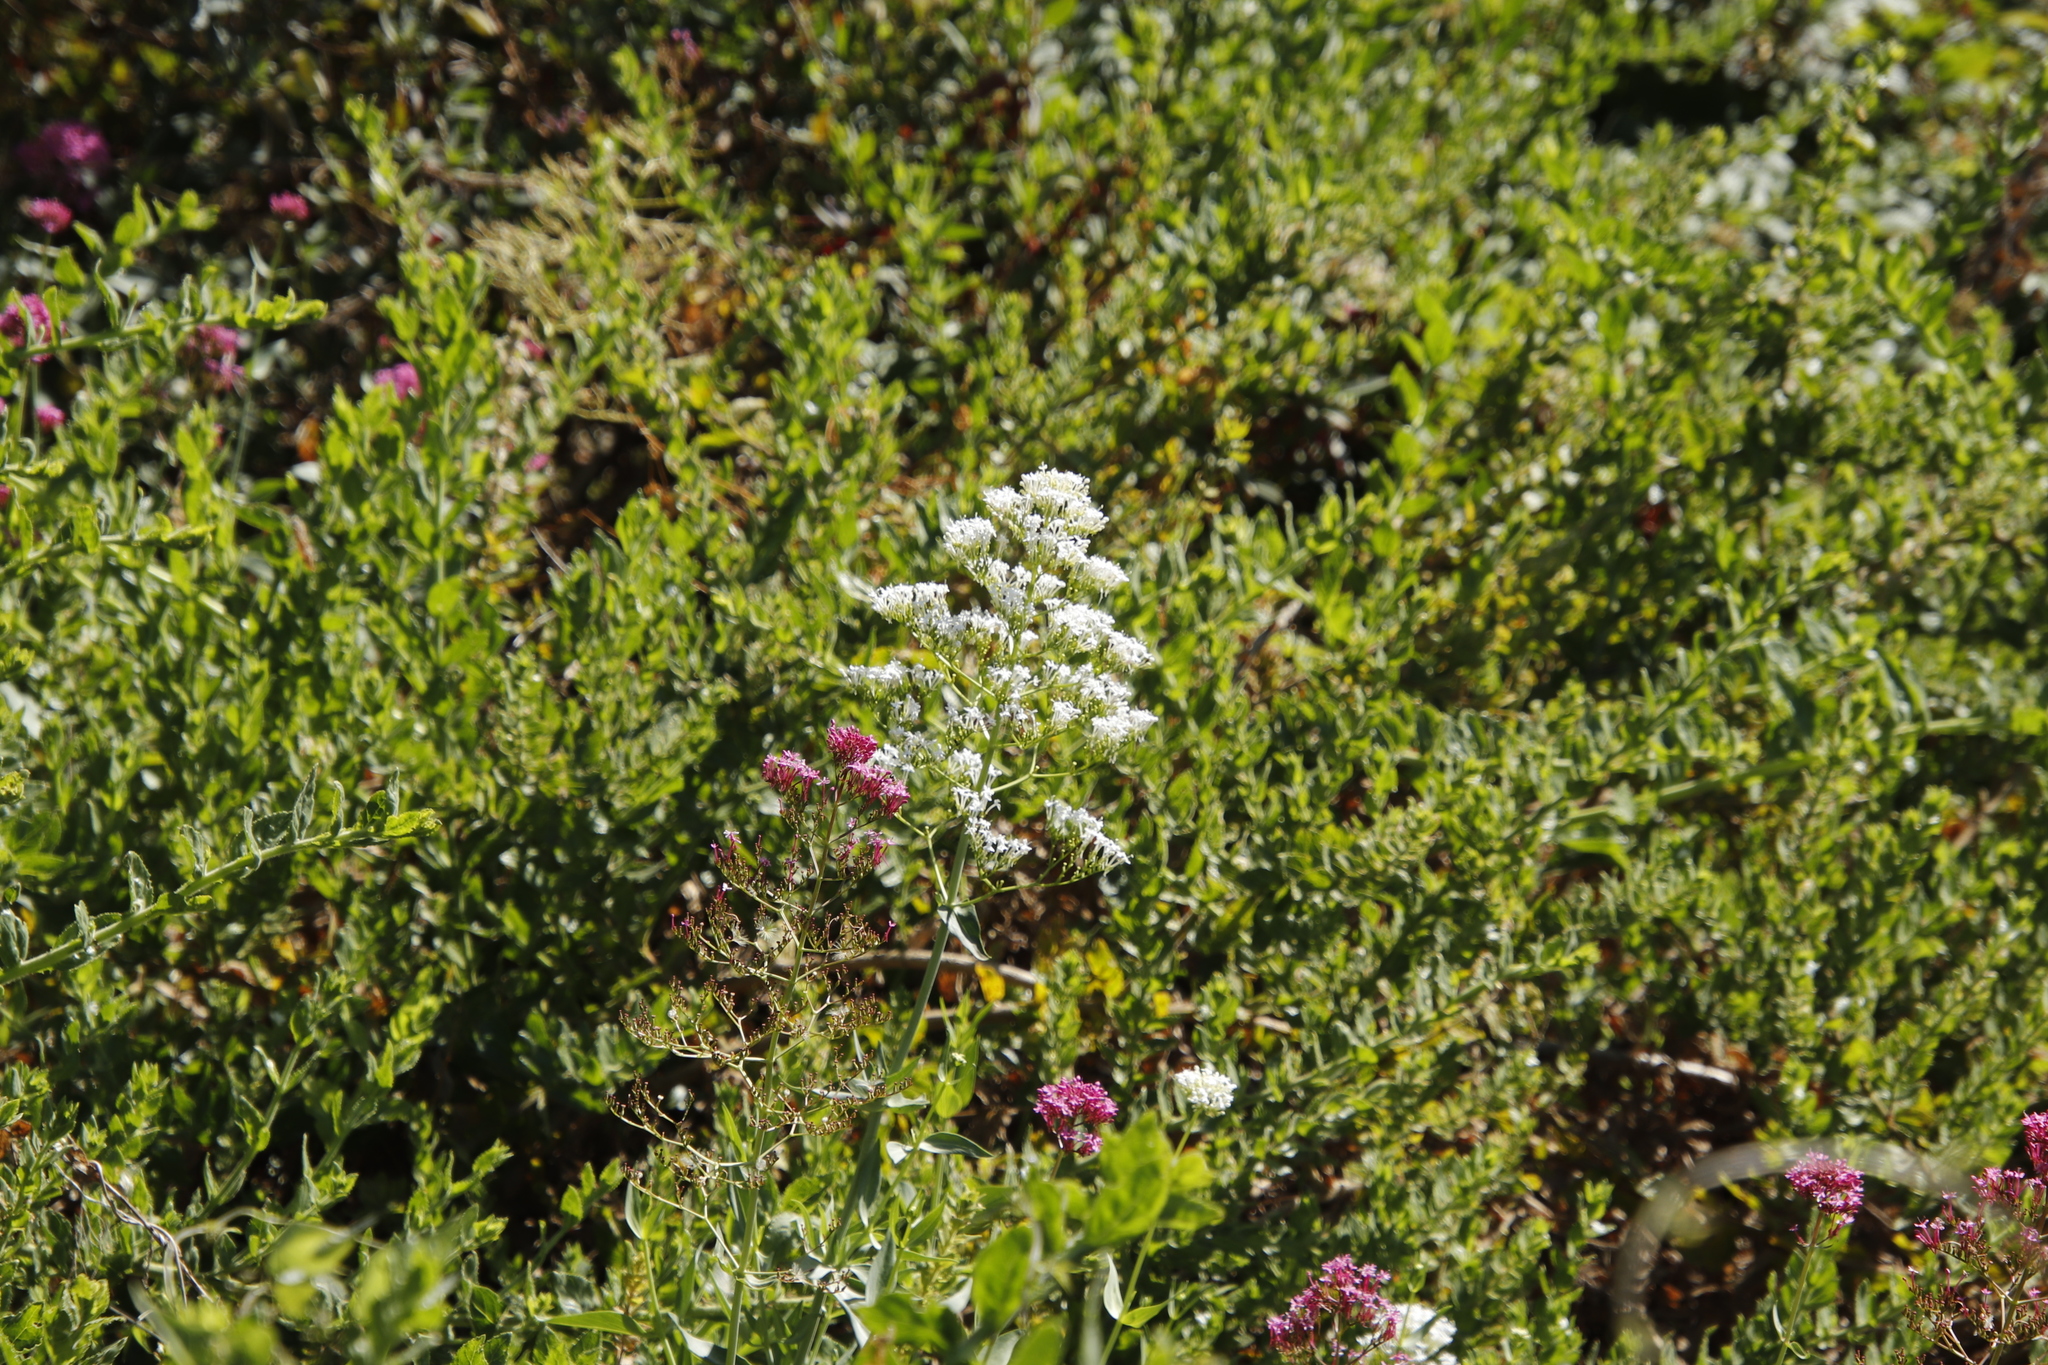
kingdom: Plantae
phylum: Tracheophyta
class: Magnoliopsida
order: Dipsacales
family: Caprifoliaceae
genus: Centranthus
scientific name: Centranthus ruber
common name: Red valerian
